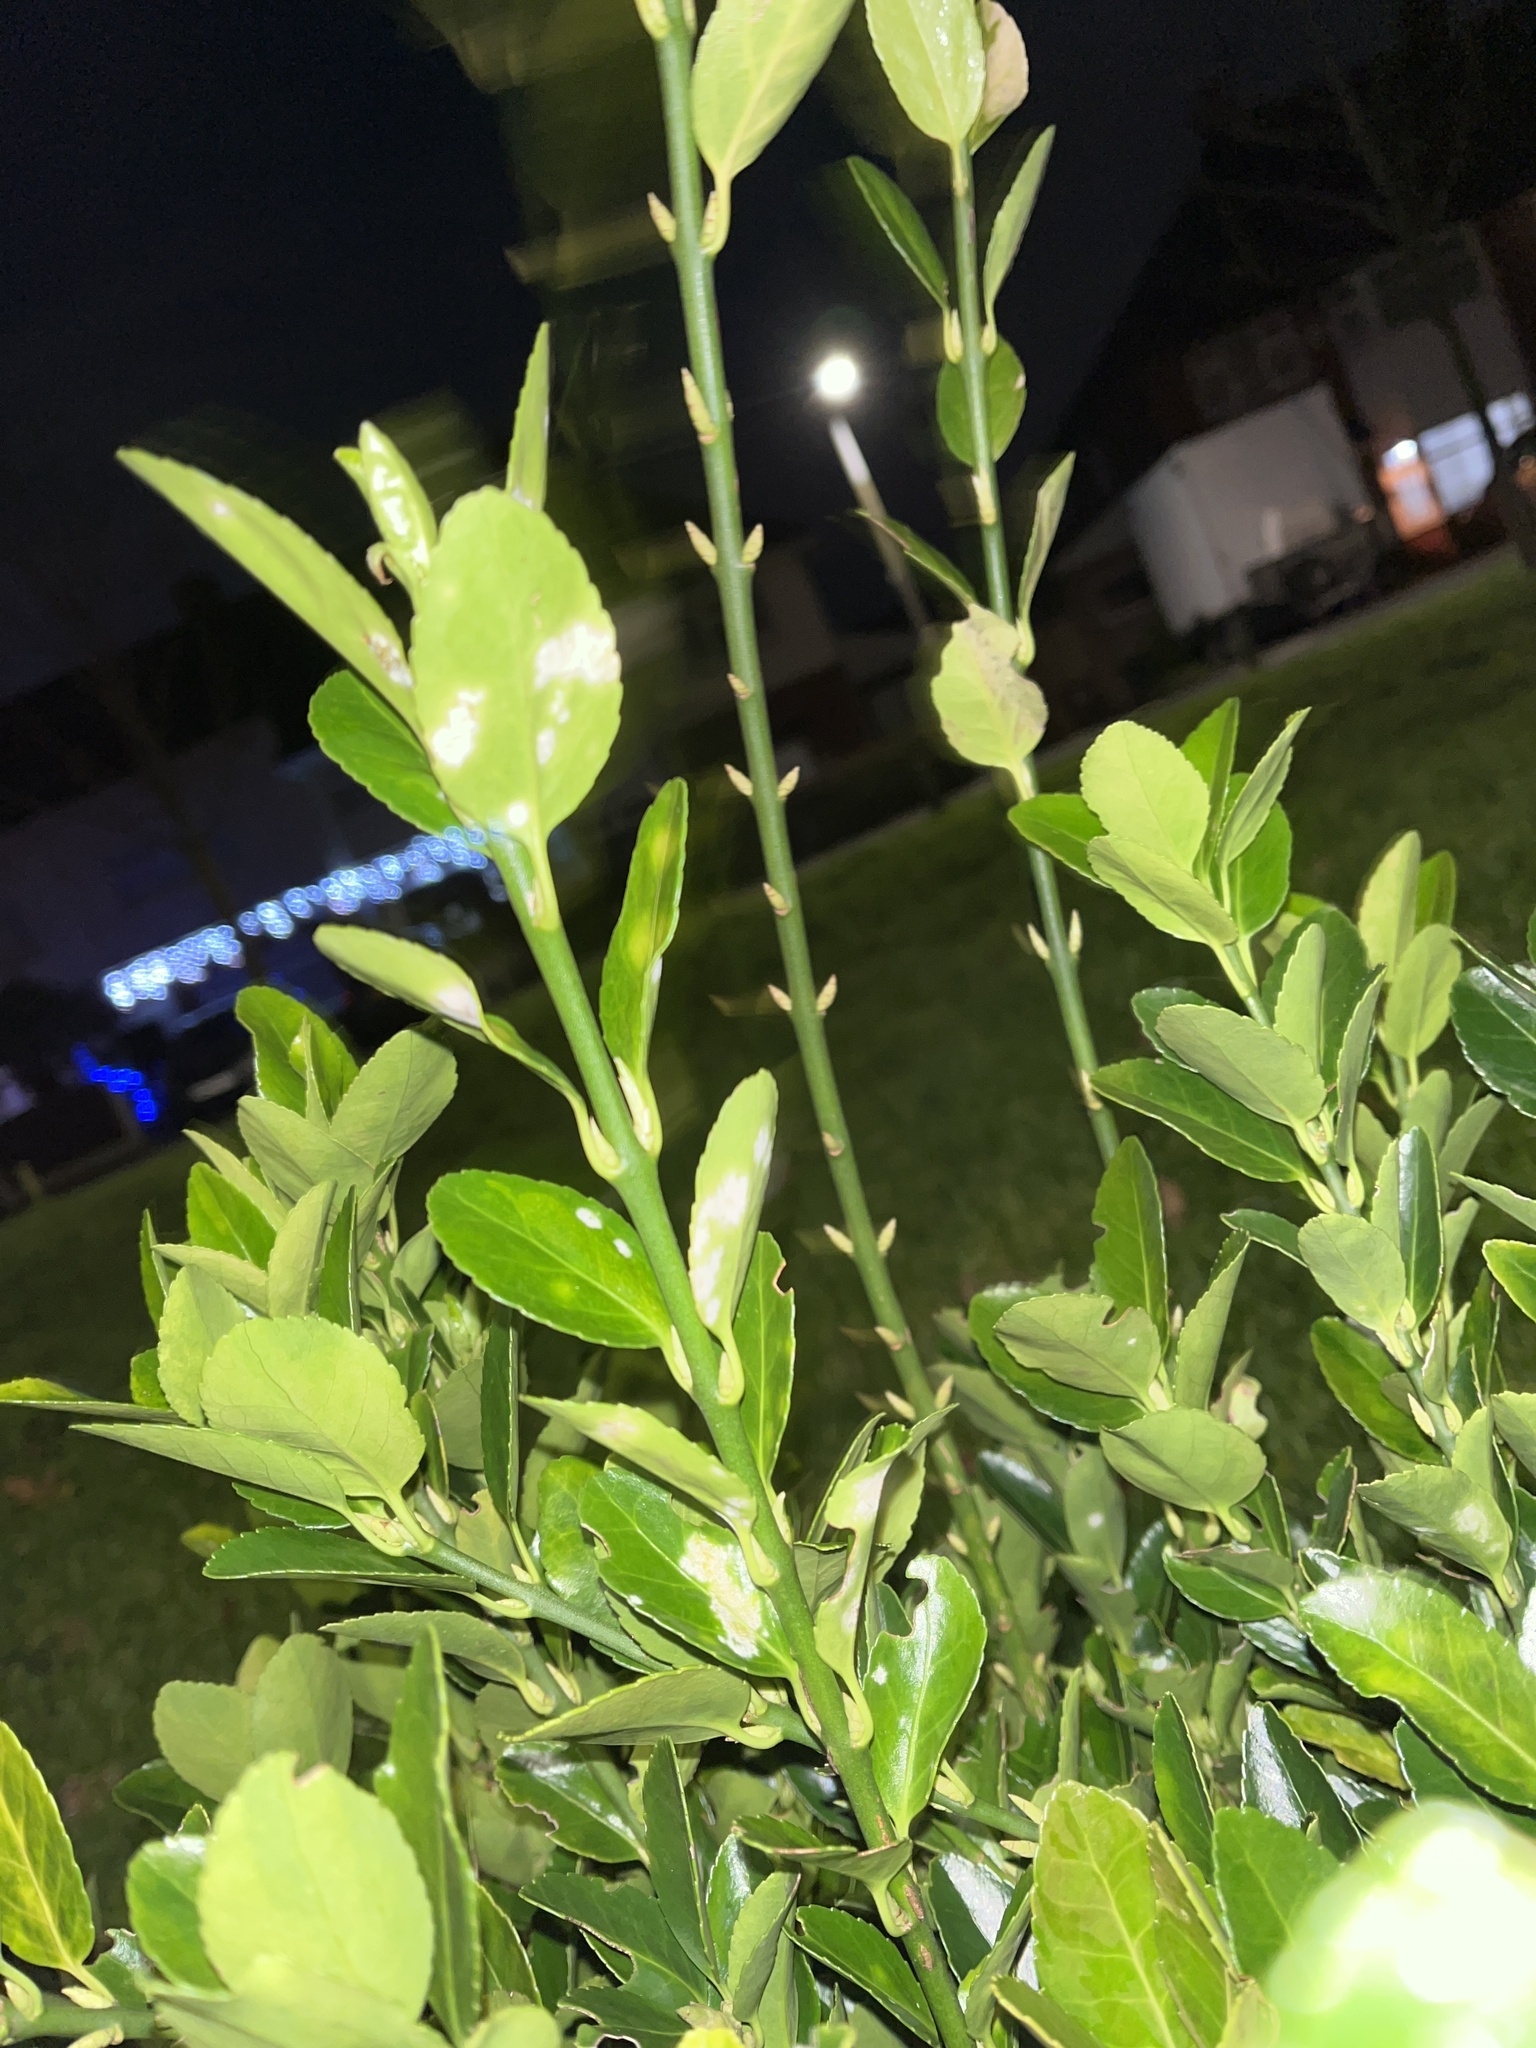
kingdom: Fungi
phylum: Ascomycota
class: Leotiomycetes
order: Helotiales
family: Erysiphaceae
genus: Erysiphe
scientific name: Erysiphe euonymicola
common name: Spindletree mildew
